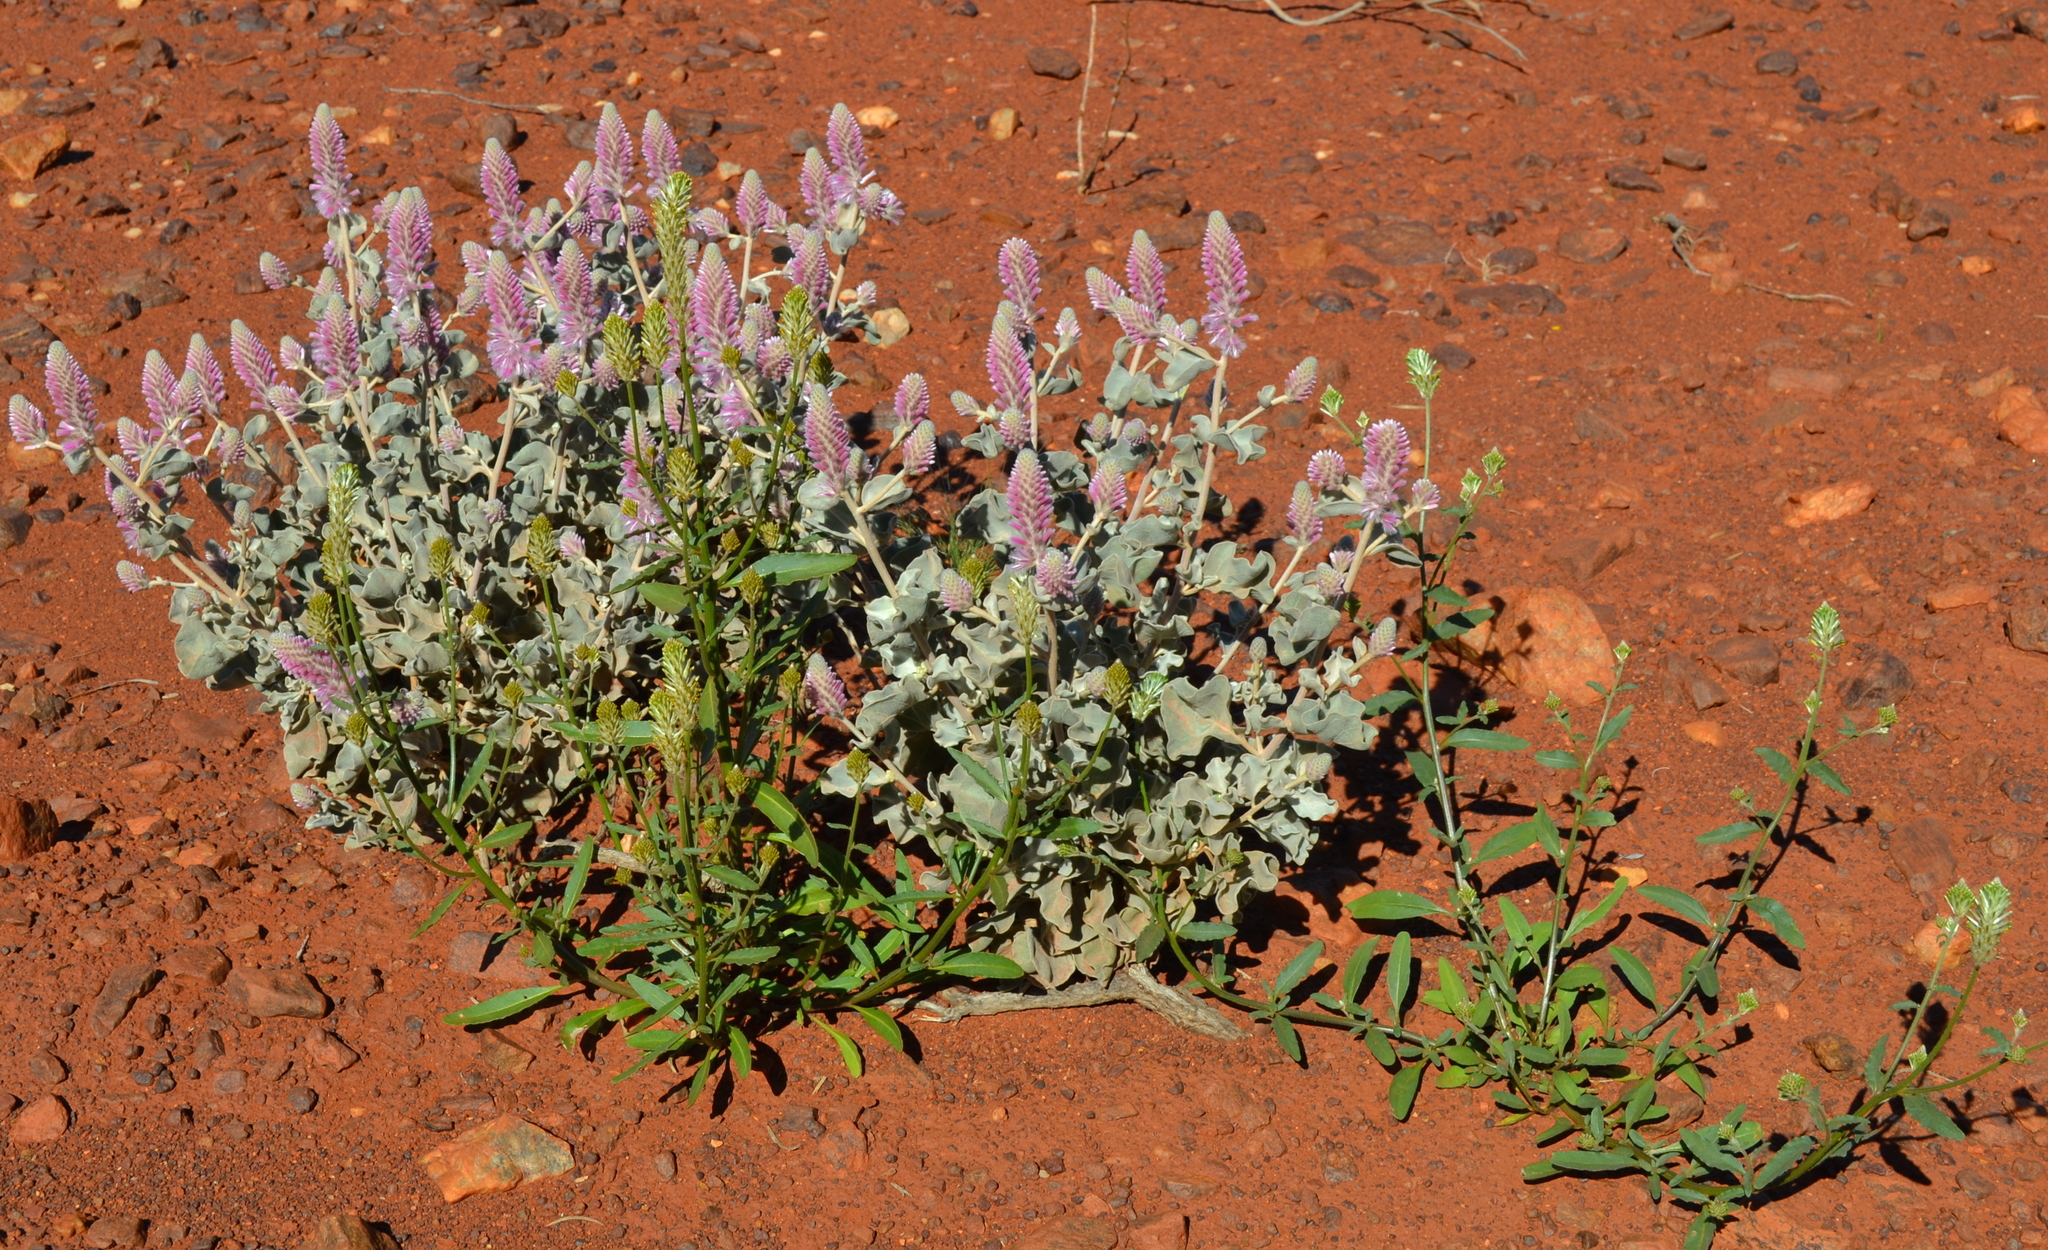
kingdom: Plantae
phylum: Tracheophyta
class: Magnoliopsida
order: Caryophyllales
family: Amaranthaceae
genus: Ptilotus
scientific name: Ptilotus rotundifolius
